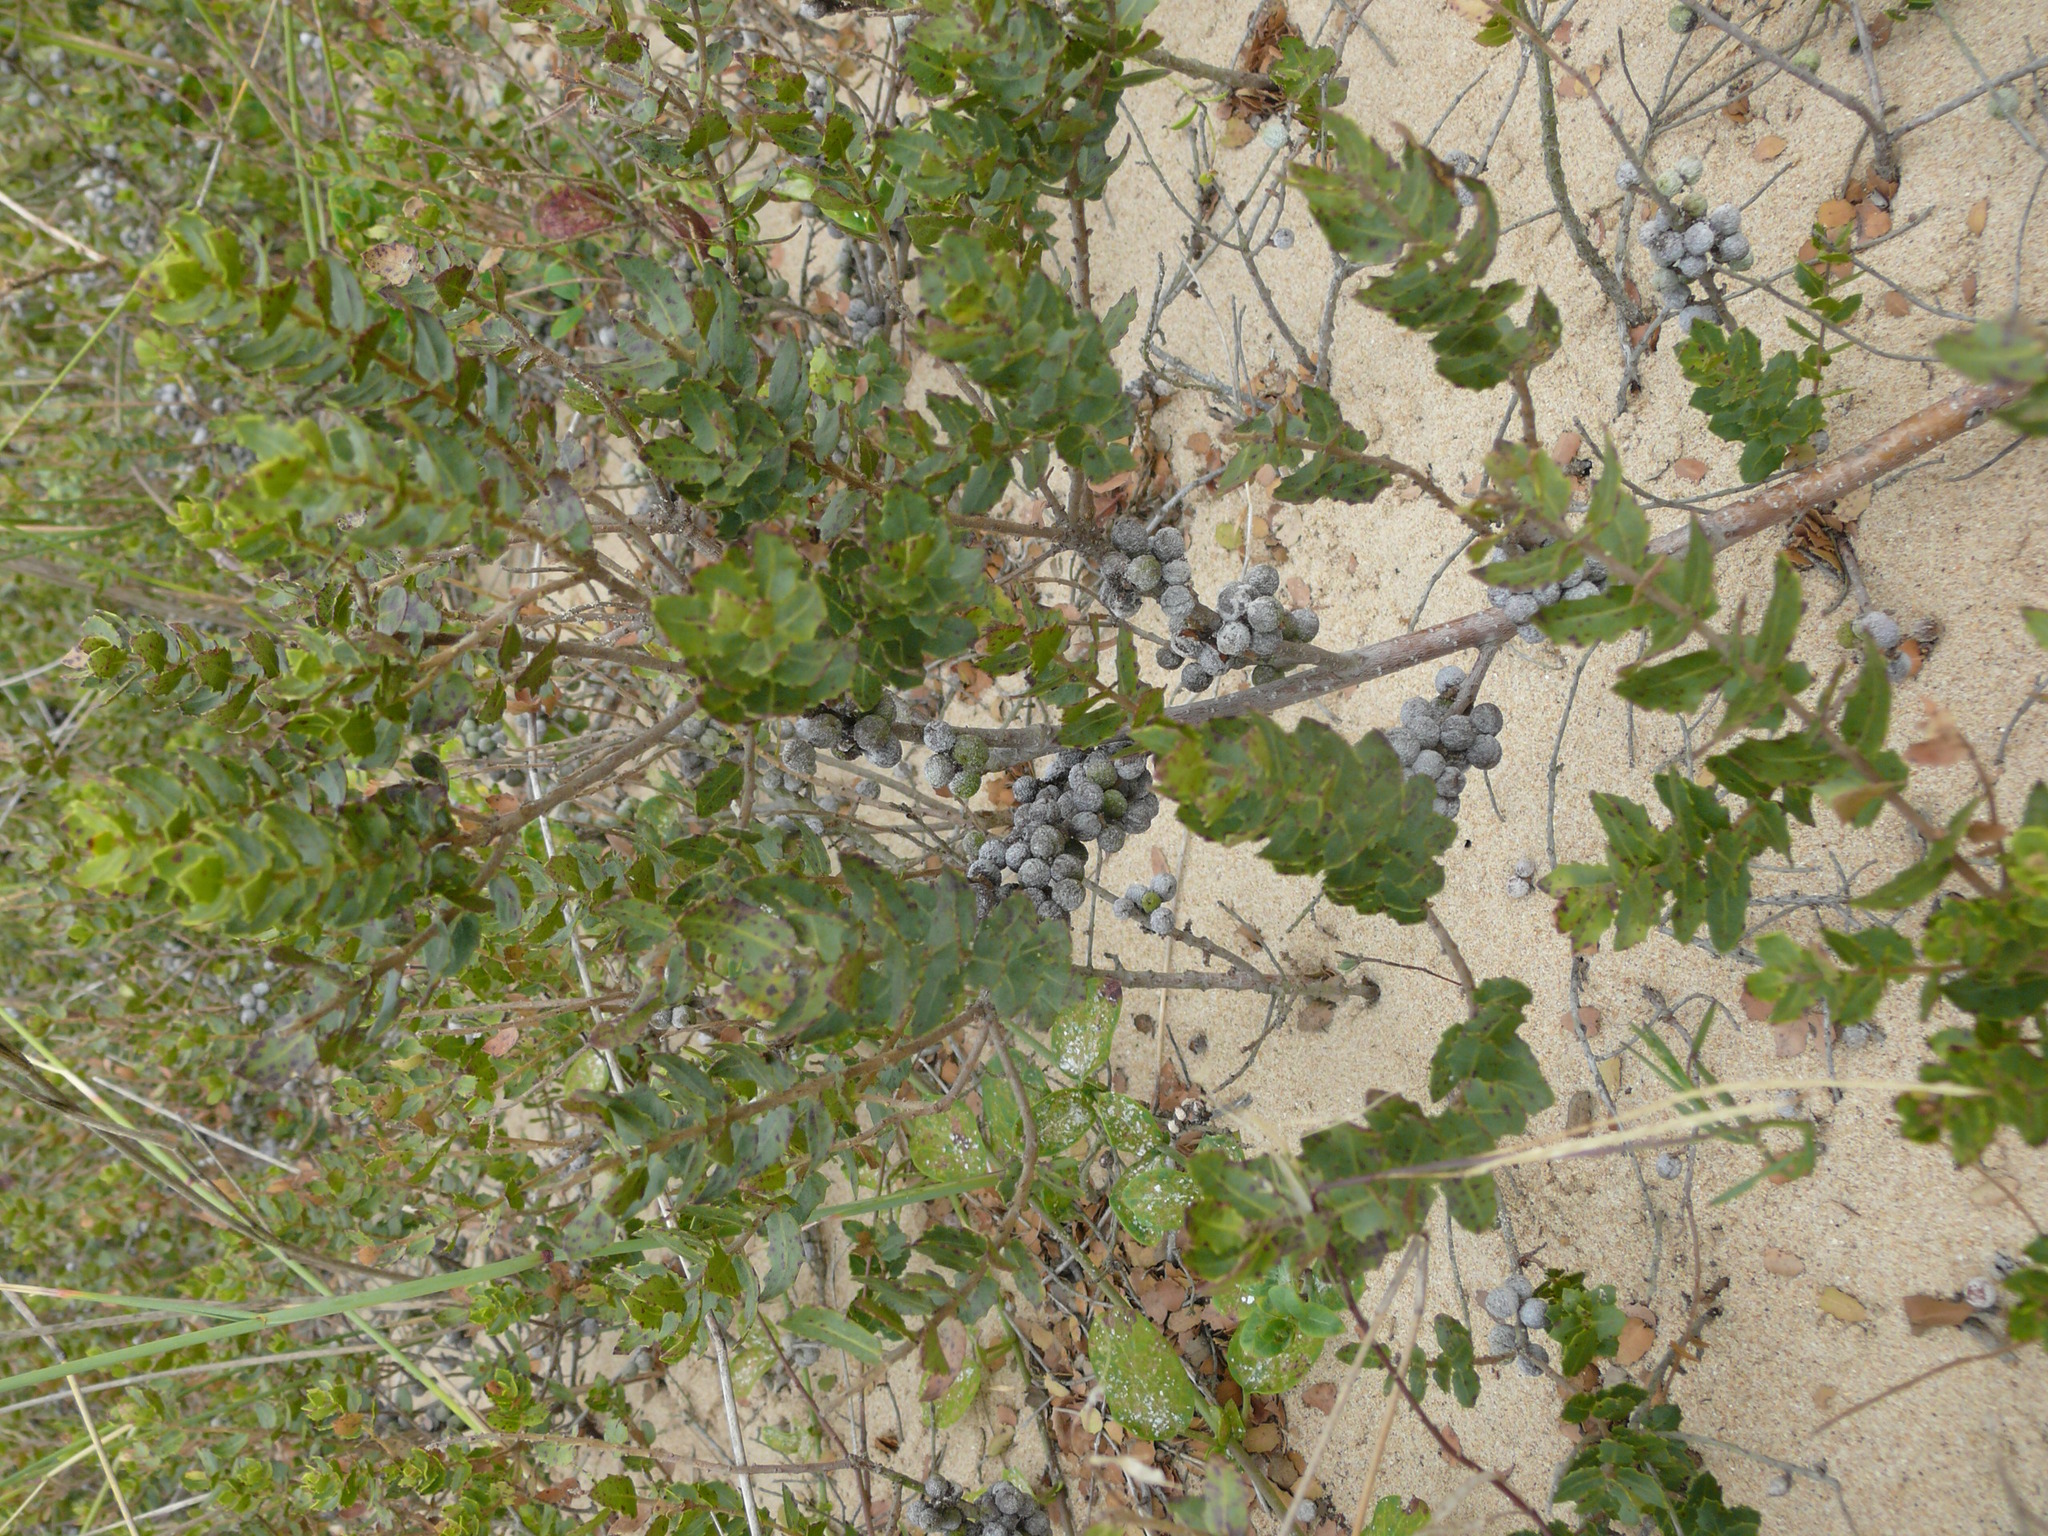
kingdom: Plantae
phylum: Tracheophyta
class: Magnoliopsida
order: Fagales
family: Myricaceae
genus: Morella
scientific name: Morella cordifolia
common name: Waxberry
